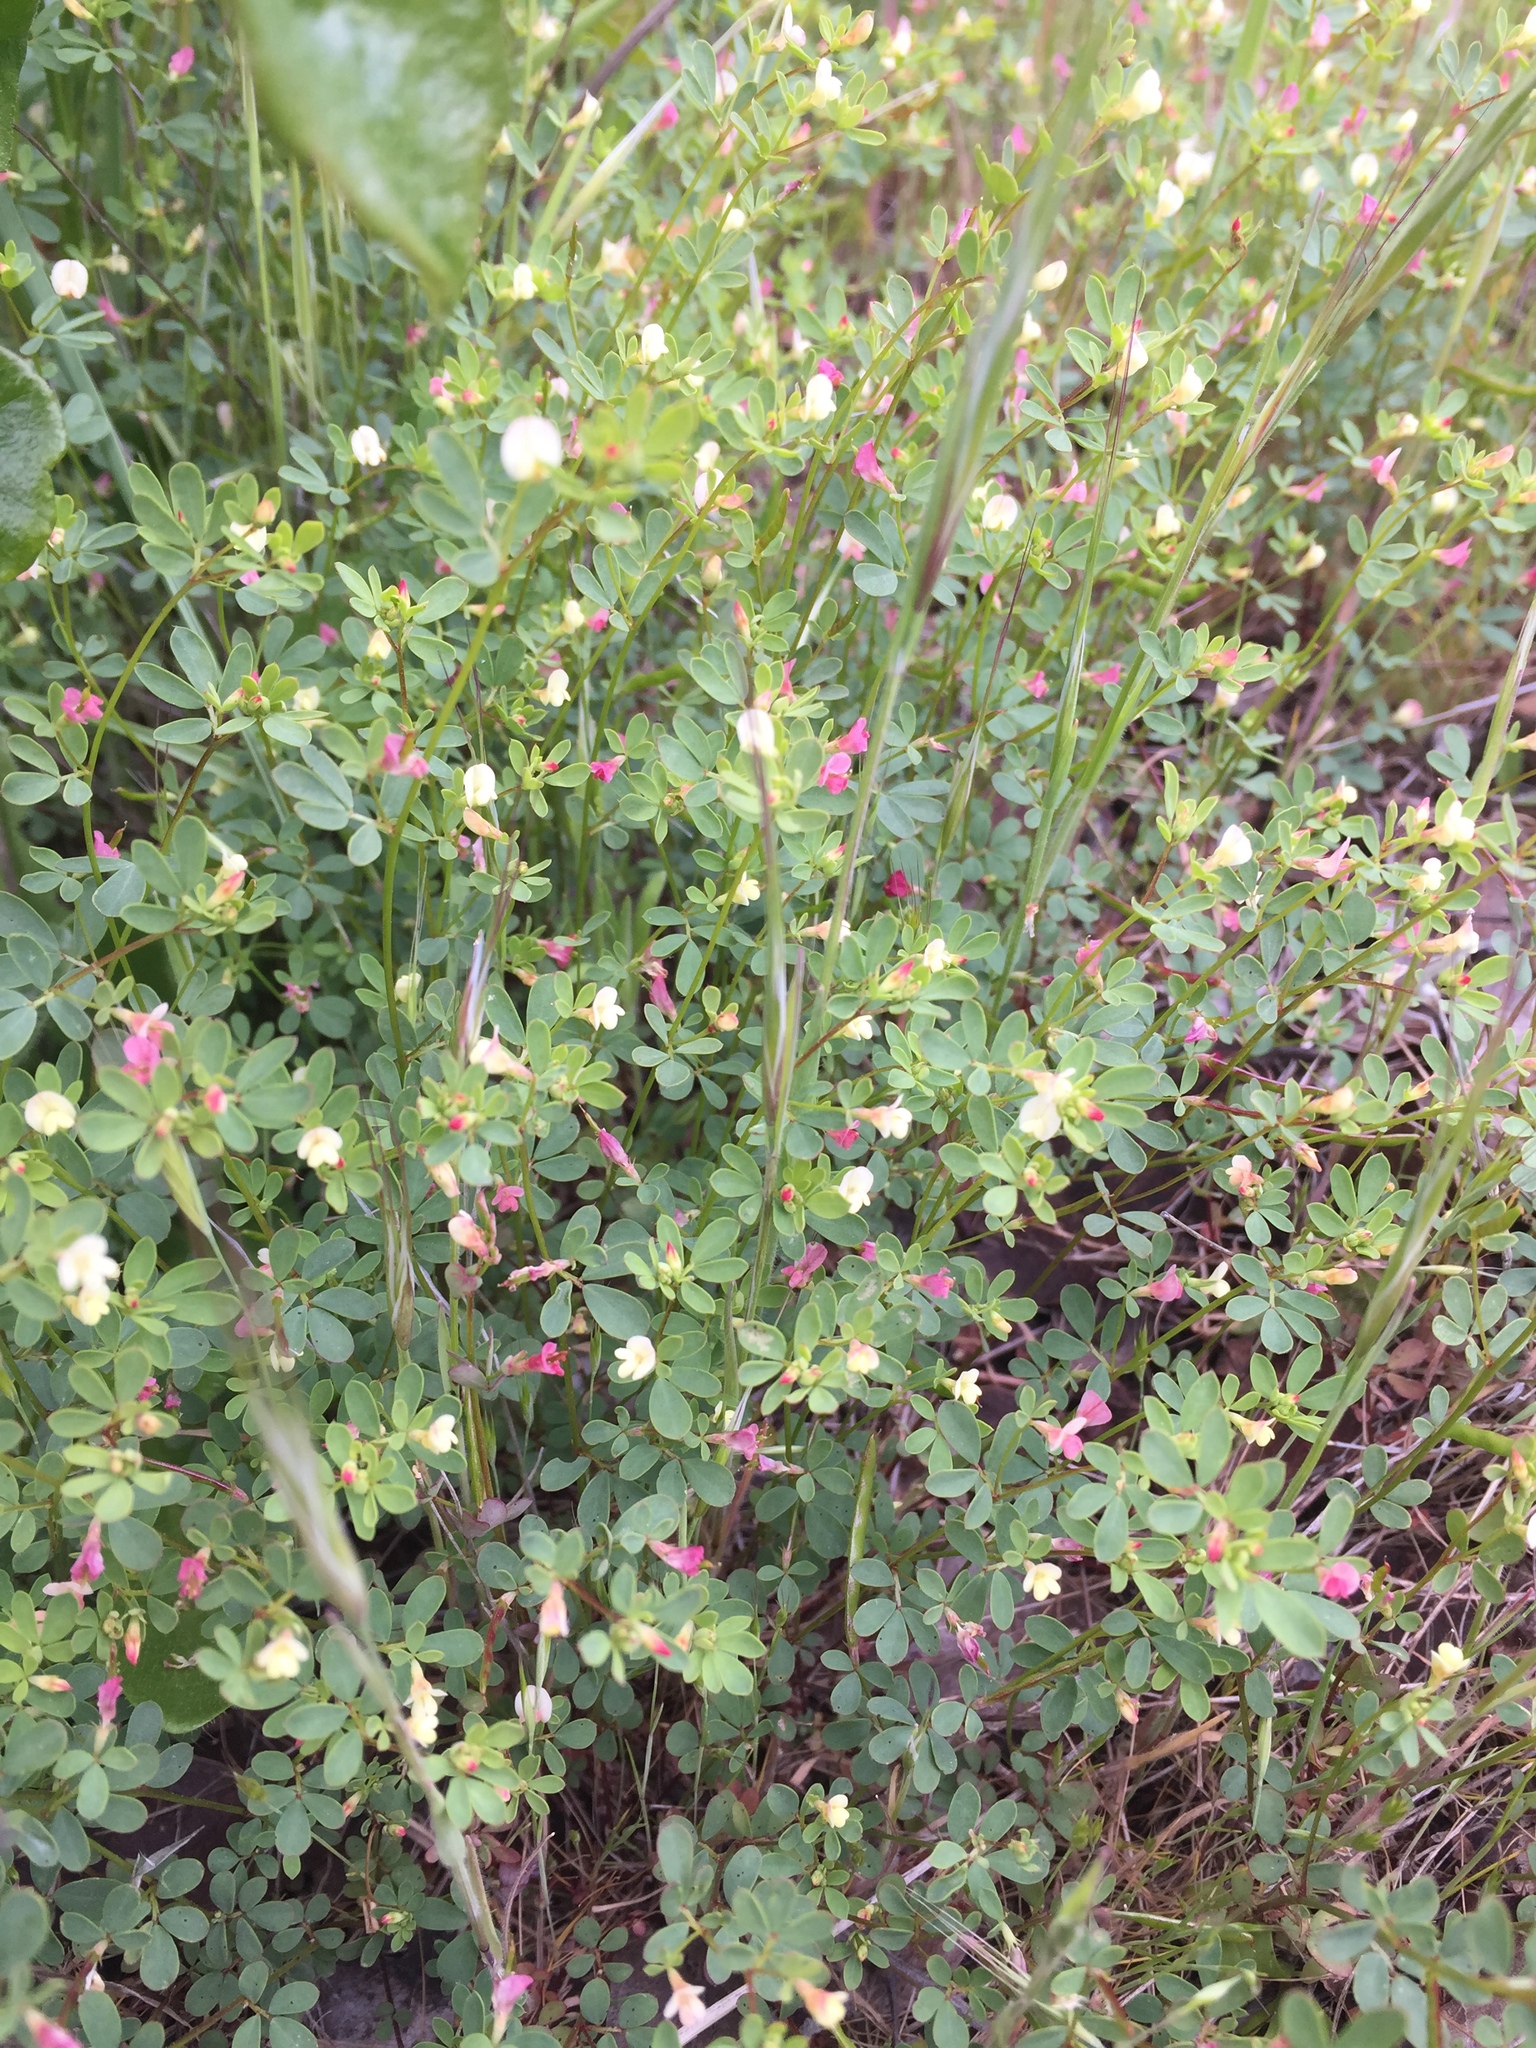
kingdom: Plantae
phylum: Tracheophyta
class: Magnoliopsida
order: Fabales
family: Fabaceae
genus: Acmispon
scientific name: Acmispon parviflorus
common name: Desert deer-vetch
